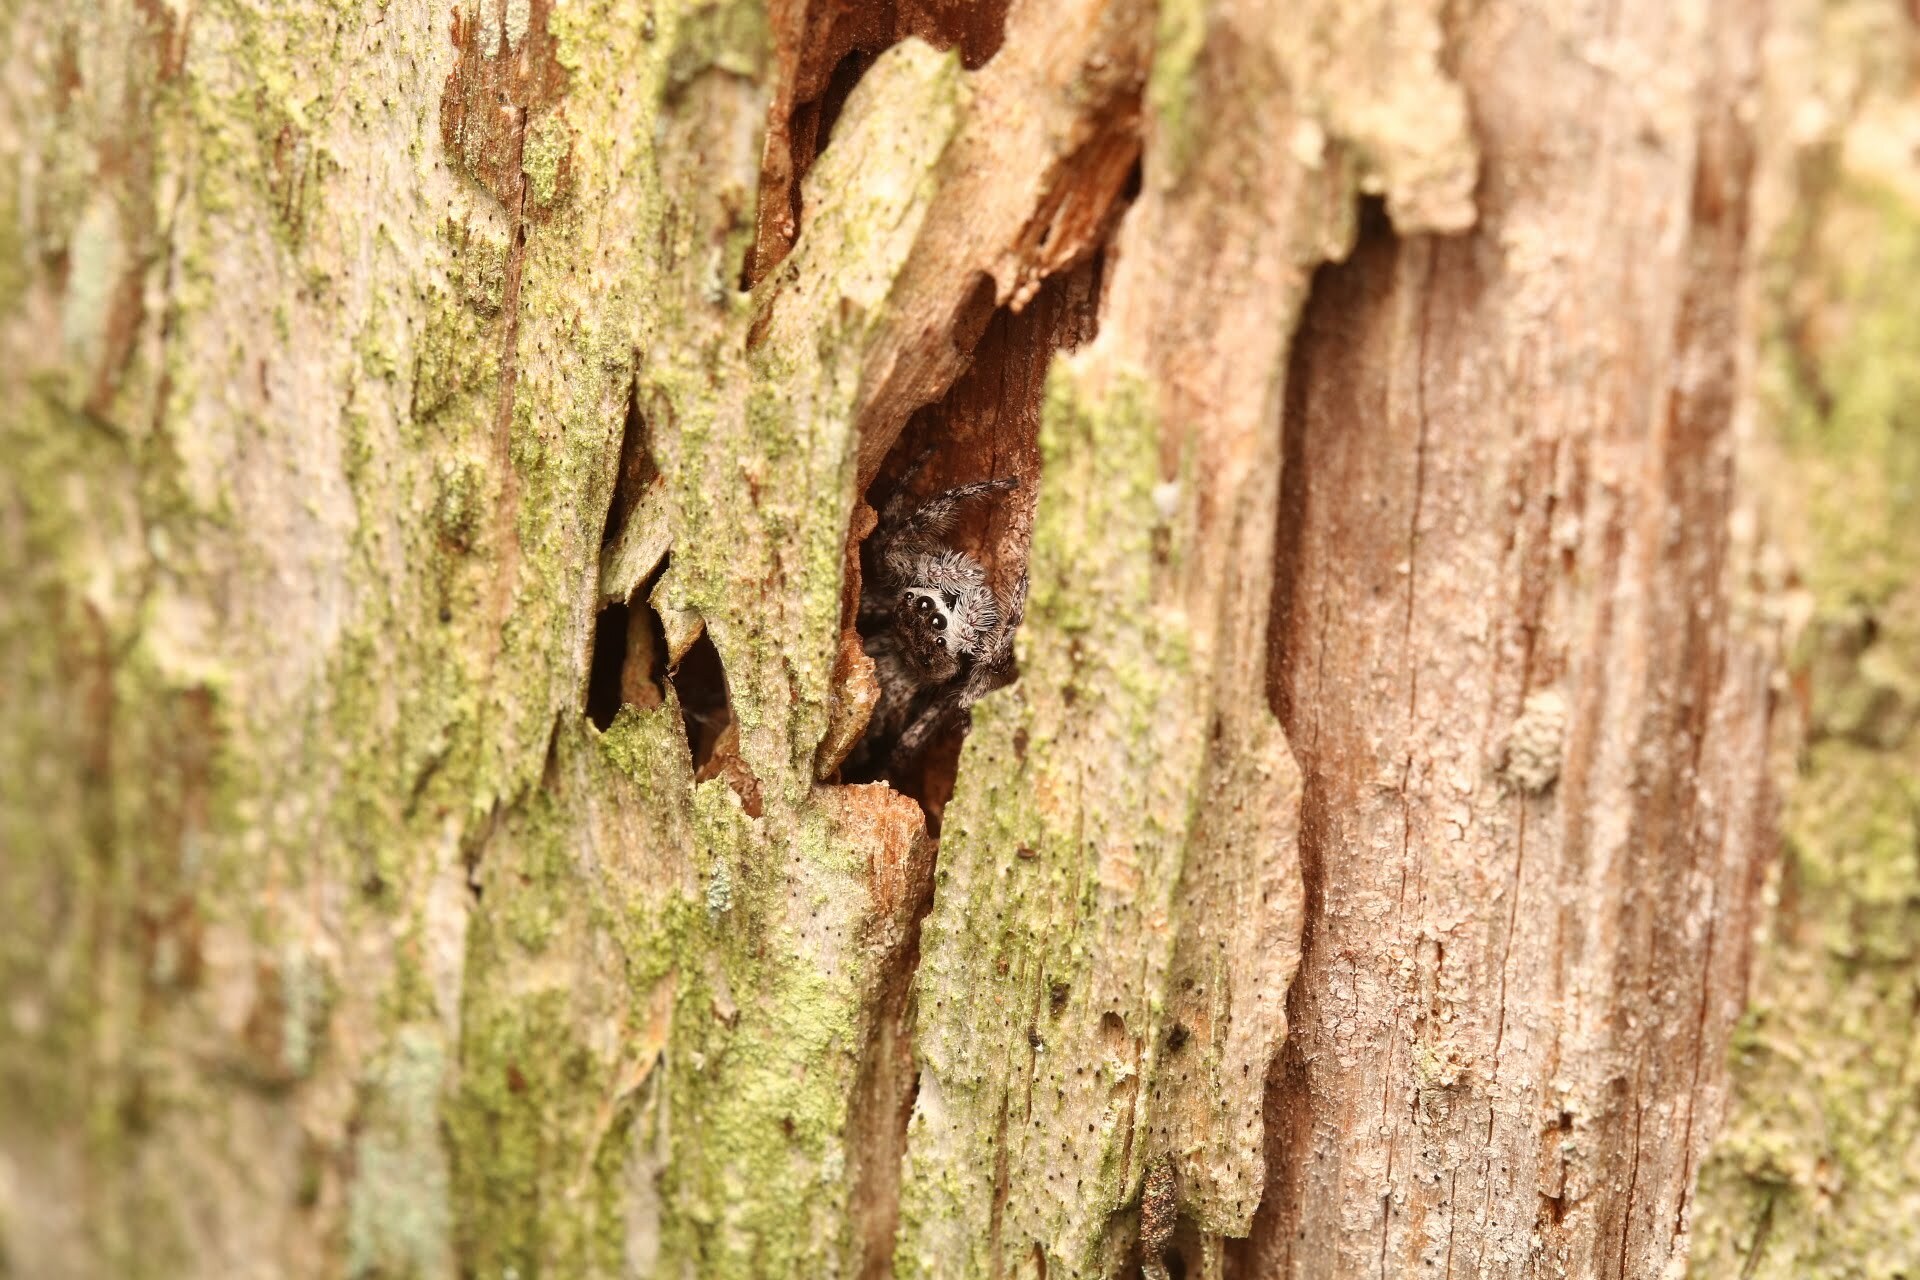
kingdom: Animalia
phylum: Arthropoda
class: Arachnida
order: Araneae
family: Salticidae
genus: Platycryptus
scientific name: Platycryptus undatus
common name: Tan jumping spider
